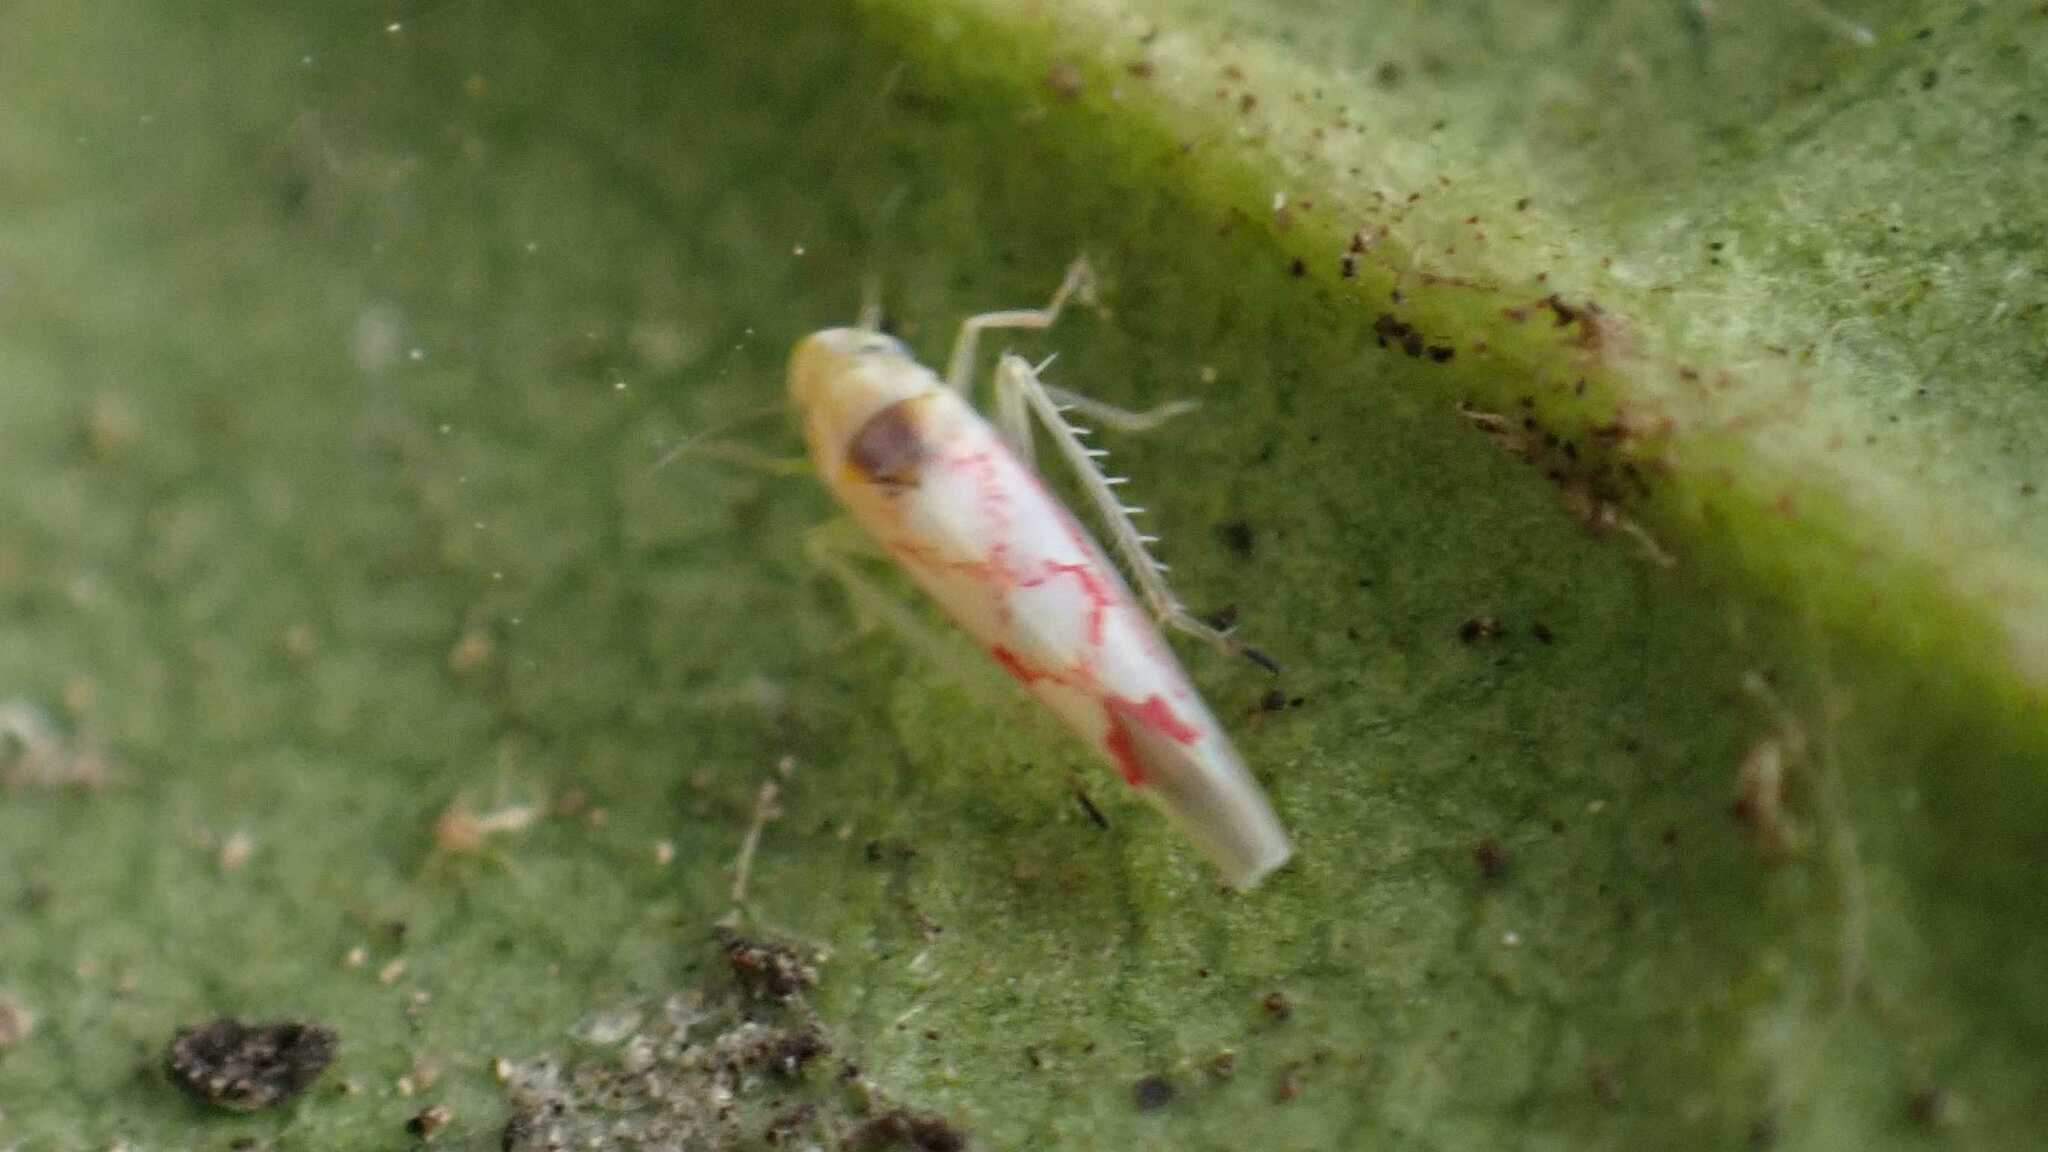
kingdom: Animalia
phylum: Arthropoda
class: Insecta
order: Hemiptera
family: Cicadellidae
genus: Zygina
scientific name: Zygina flammigera
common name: Leafhopper
